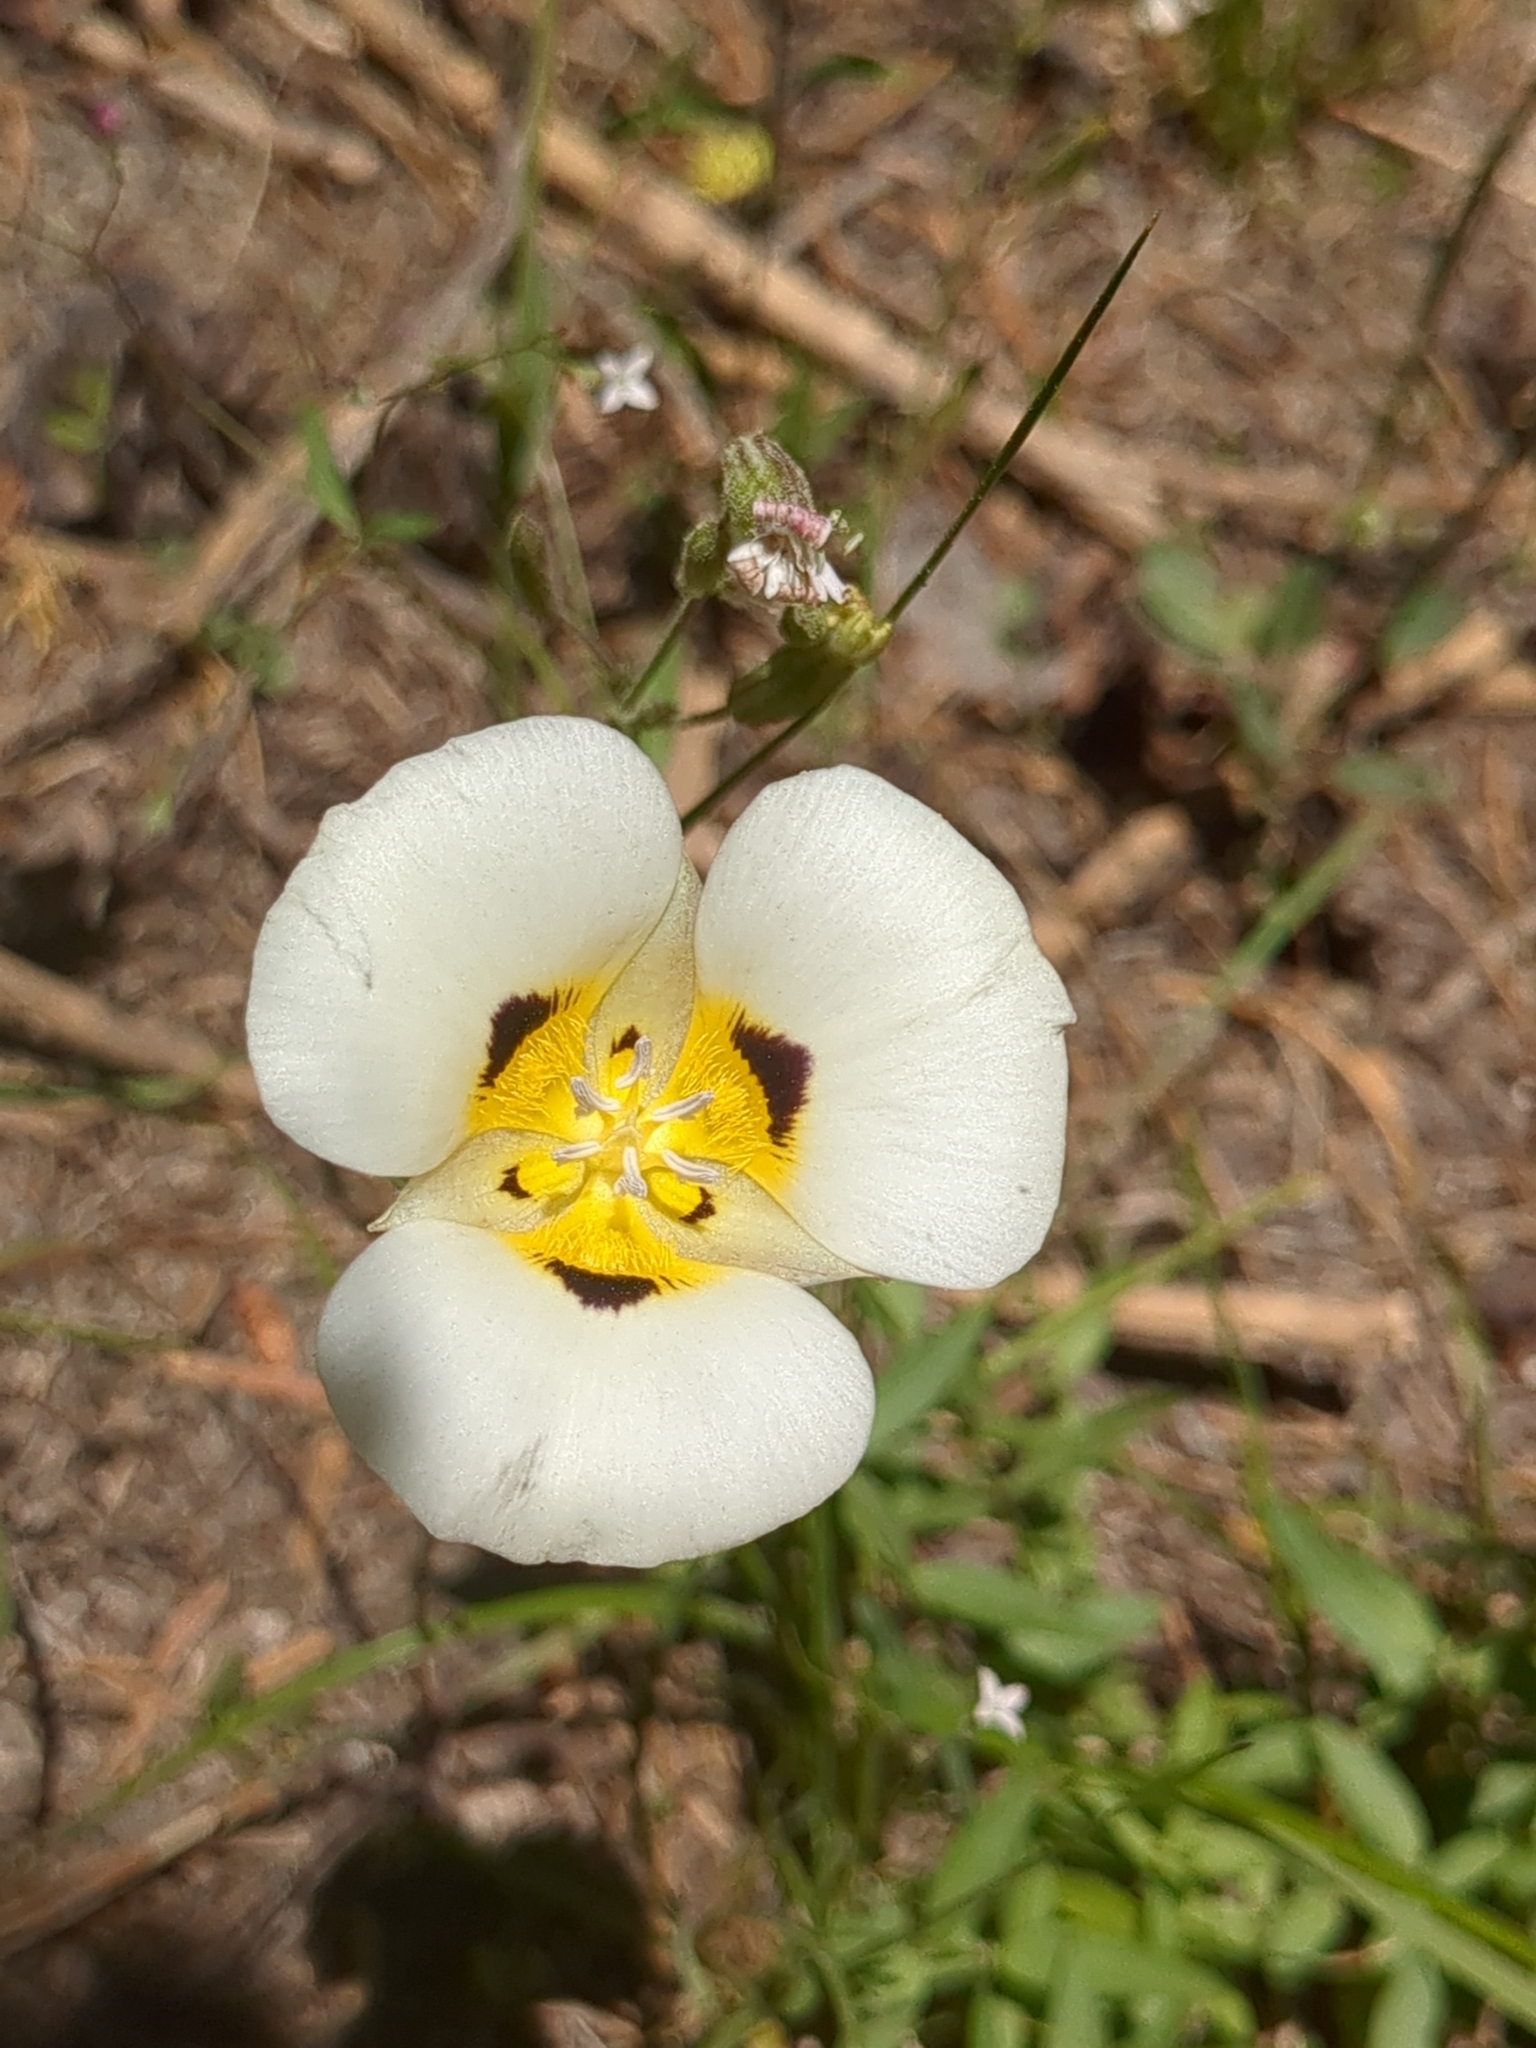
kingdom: Plantae
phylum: Tracheophyta
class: Liliopsida
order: Liliales
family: Liliaceae
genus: Calochortus
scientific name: Calochortus leichtlinii
